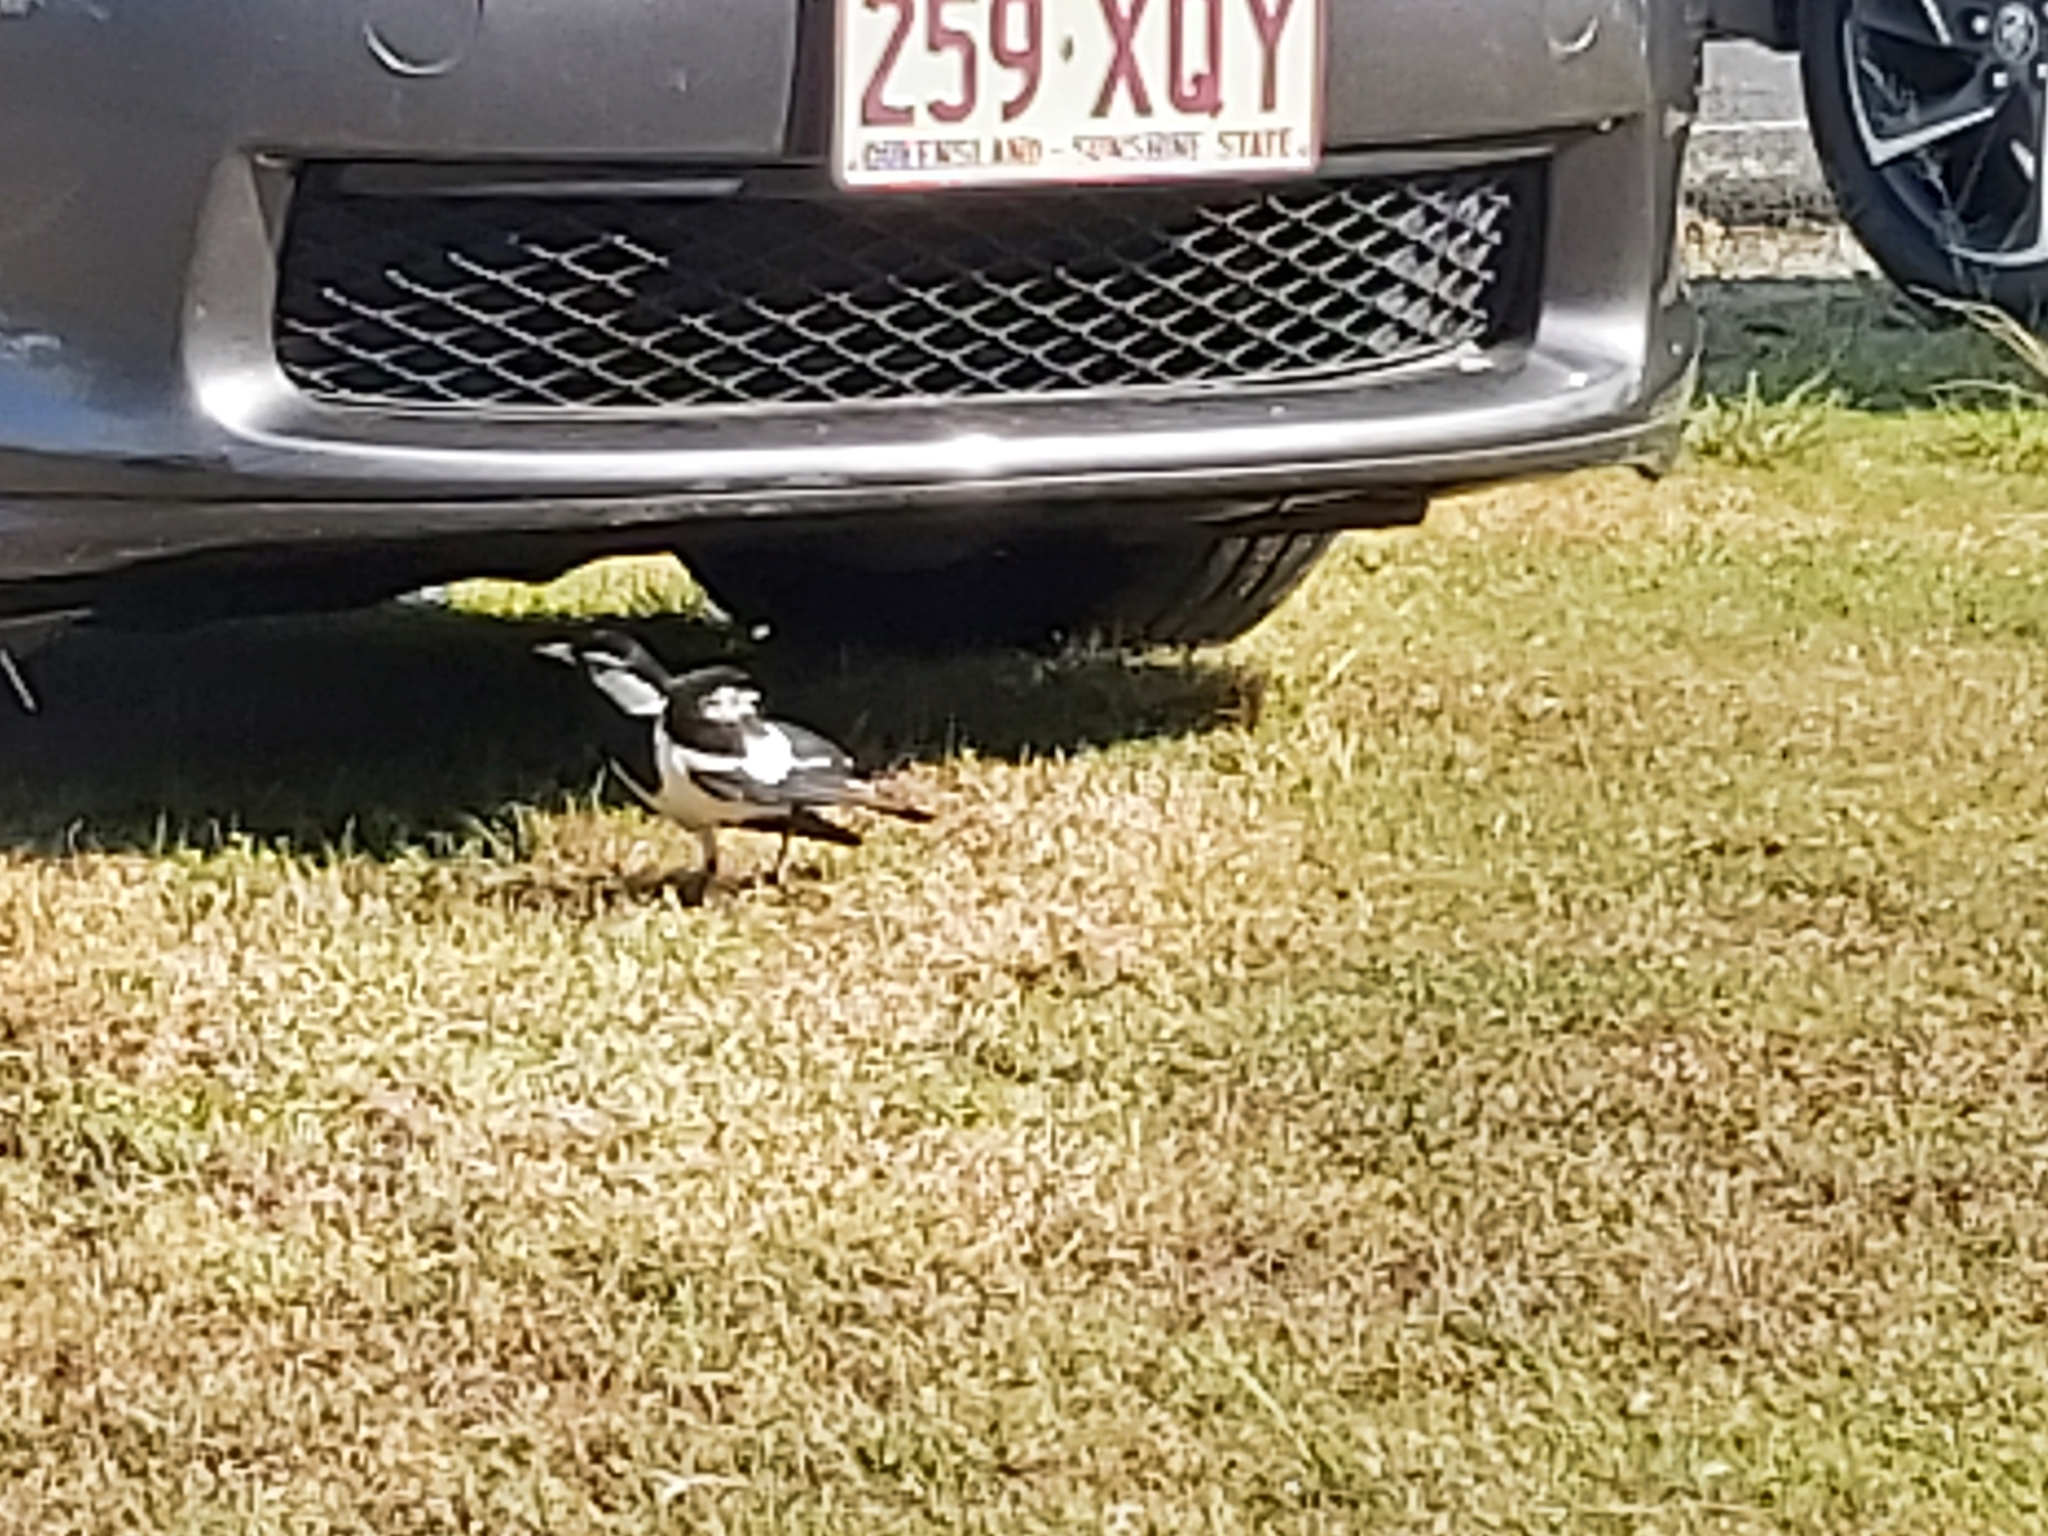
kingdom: Animalia
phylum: Chordata
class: Aves
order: Passeriformes
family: Monarchidae
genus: Grallina
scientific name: Grallina cyanoleuca
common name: Magpie-lark
